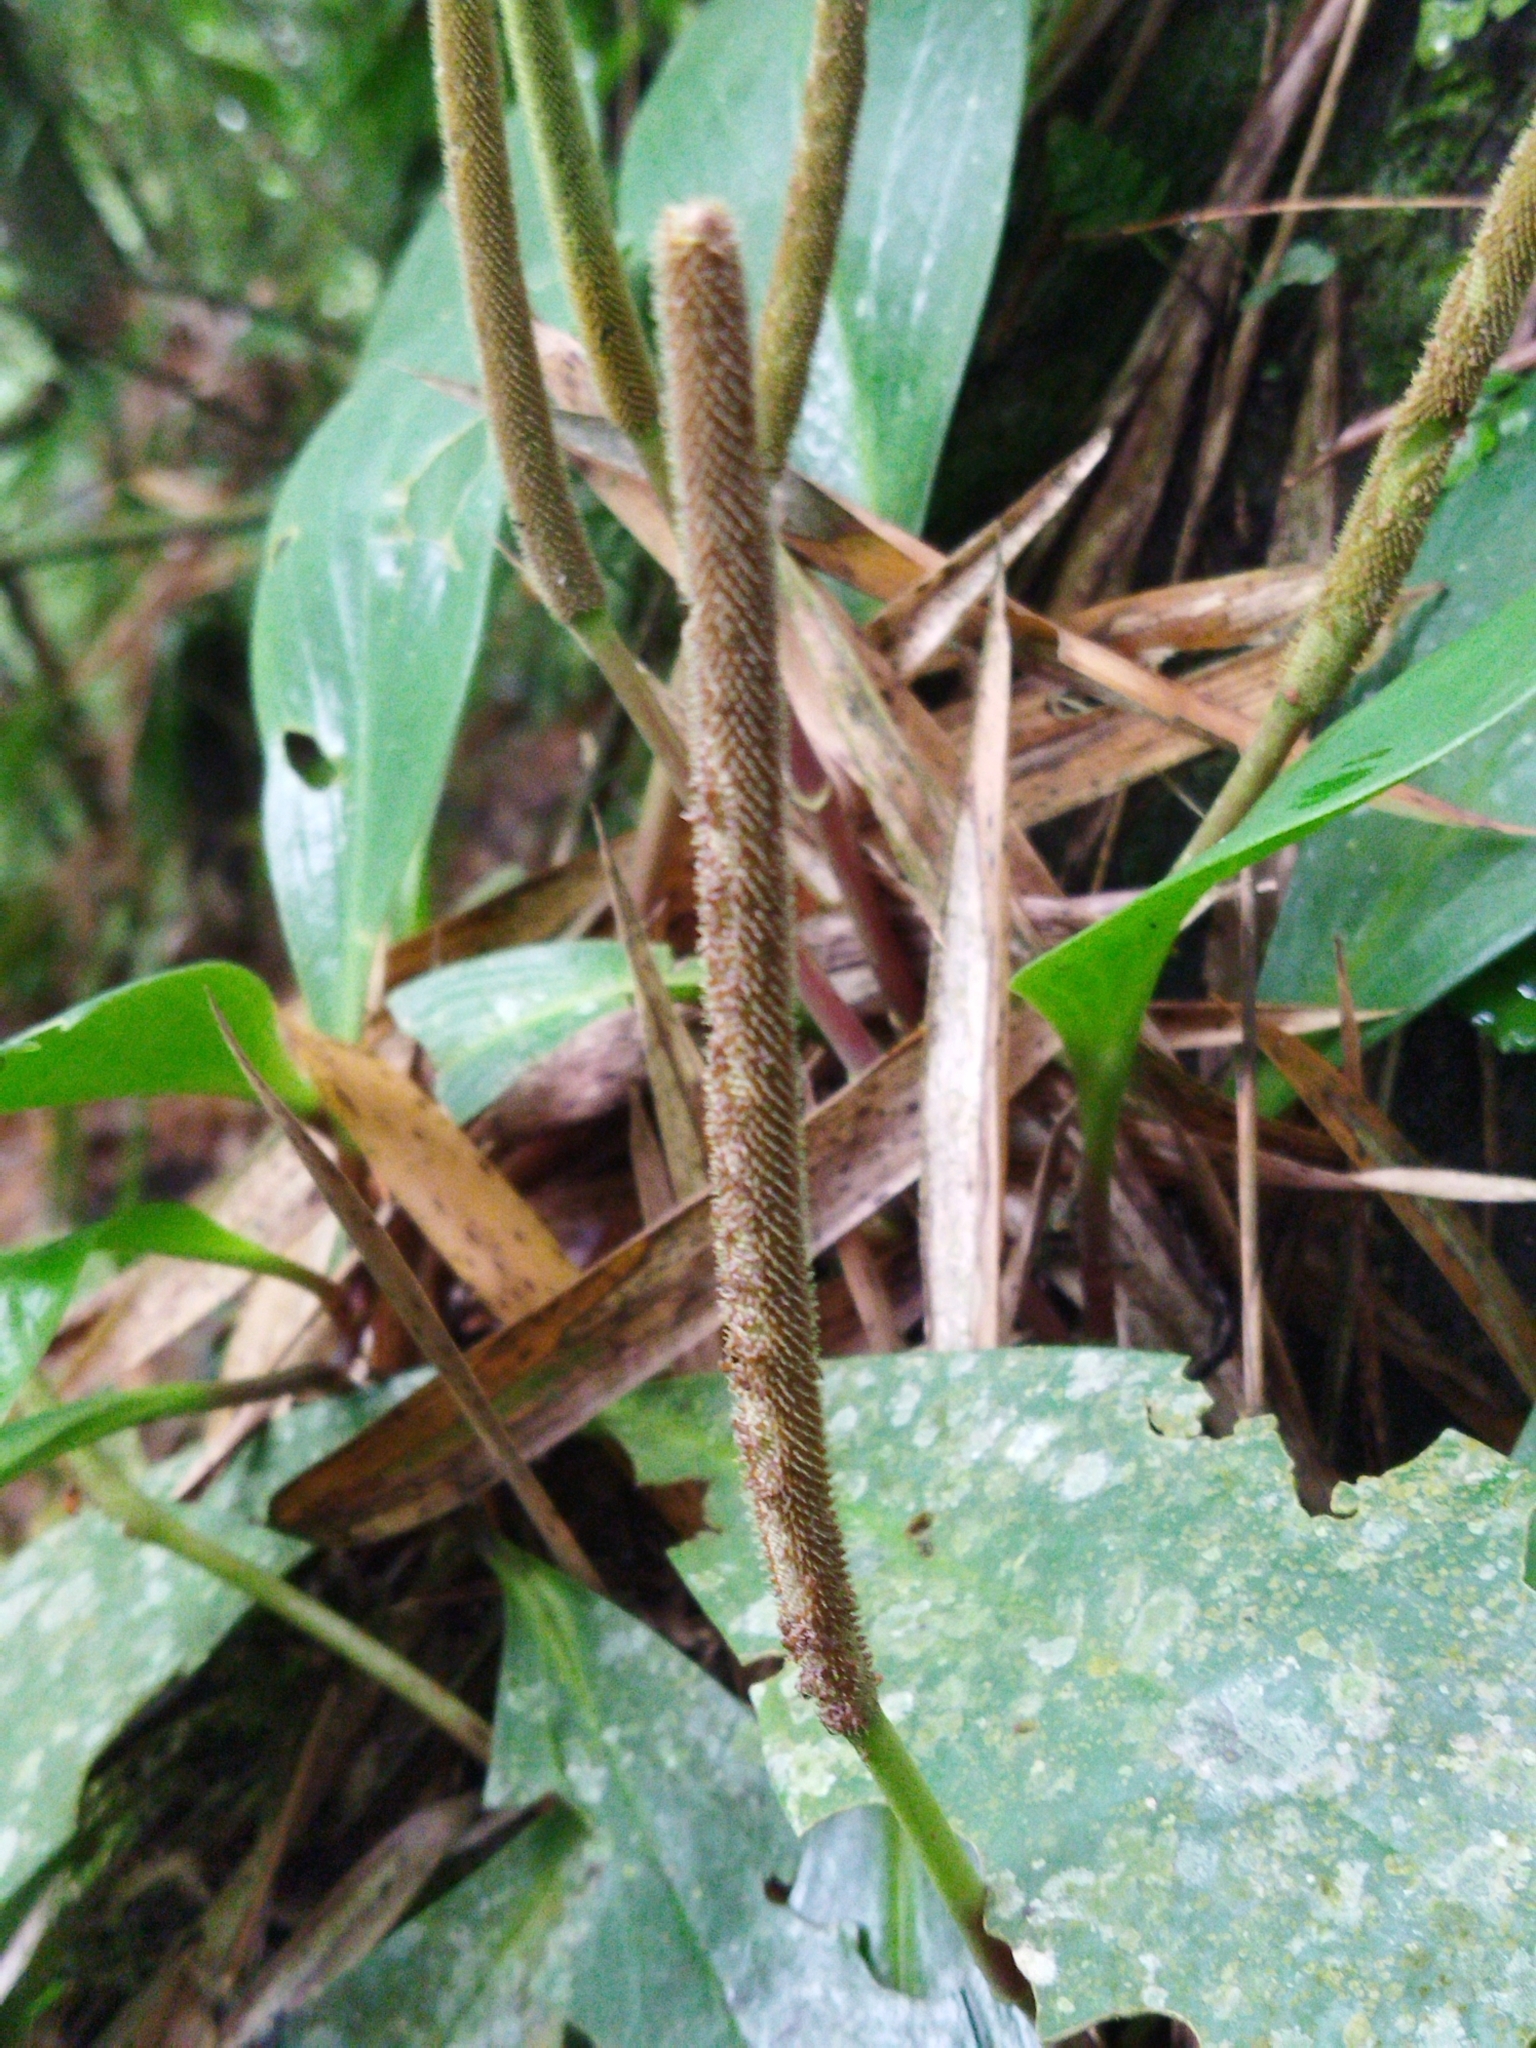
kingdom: Plantae
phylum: Tracheophyta
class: Magnoliopsida
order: Piperales
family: Piperaceae
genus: Peperomia
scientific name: Peperomia obtusifolia
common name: Baby rubberplant
